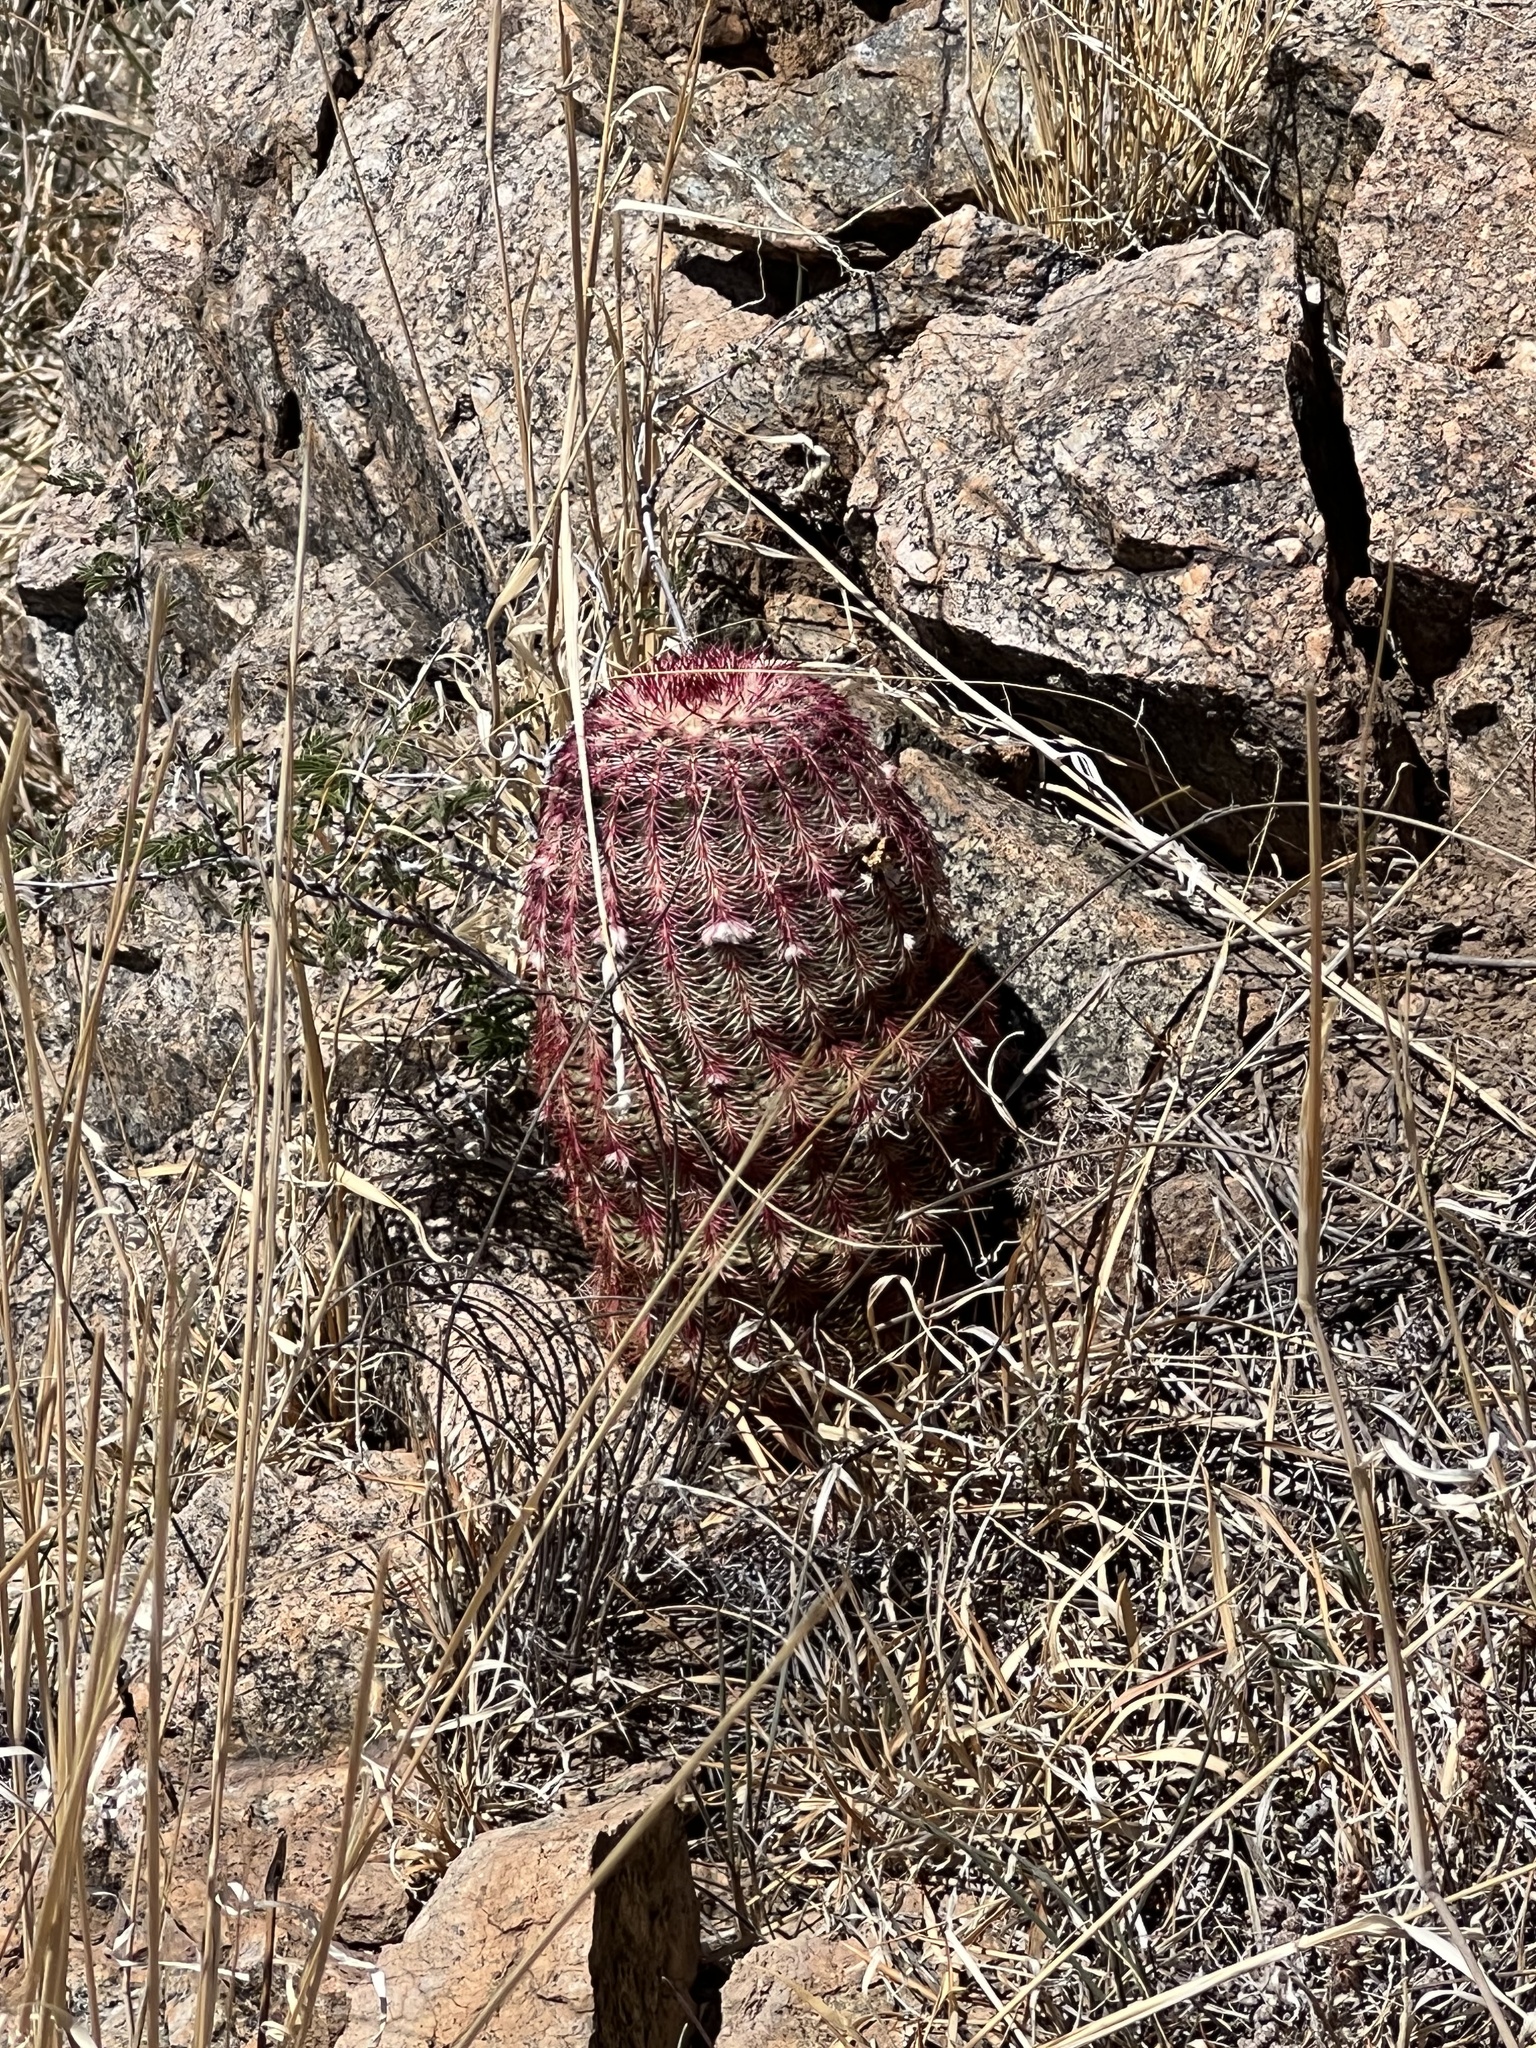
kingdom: Plantae
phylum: Tracheophyta
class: Magnoliopsida
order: Caryophyllales
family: Cactaceae
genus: Echinocereus
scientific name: Echinocereus rigidissimus
